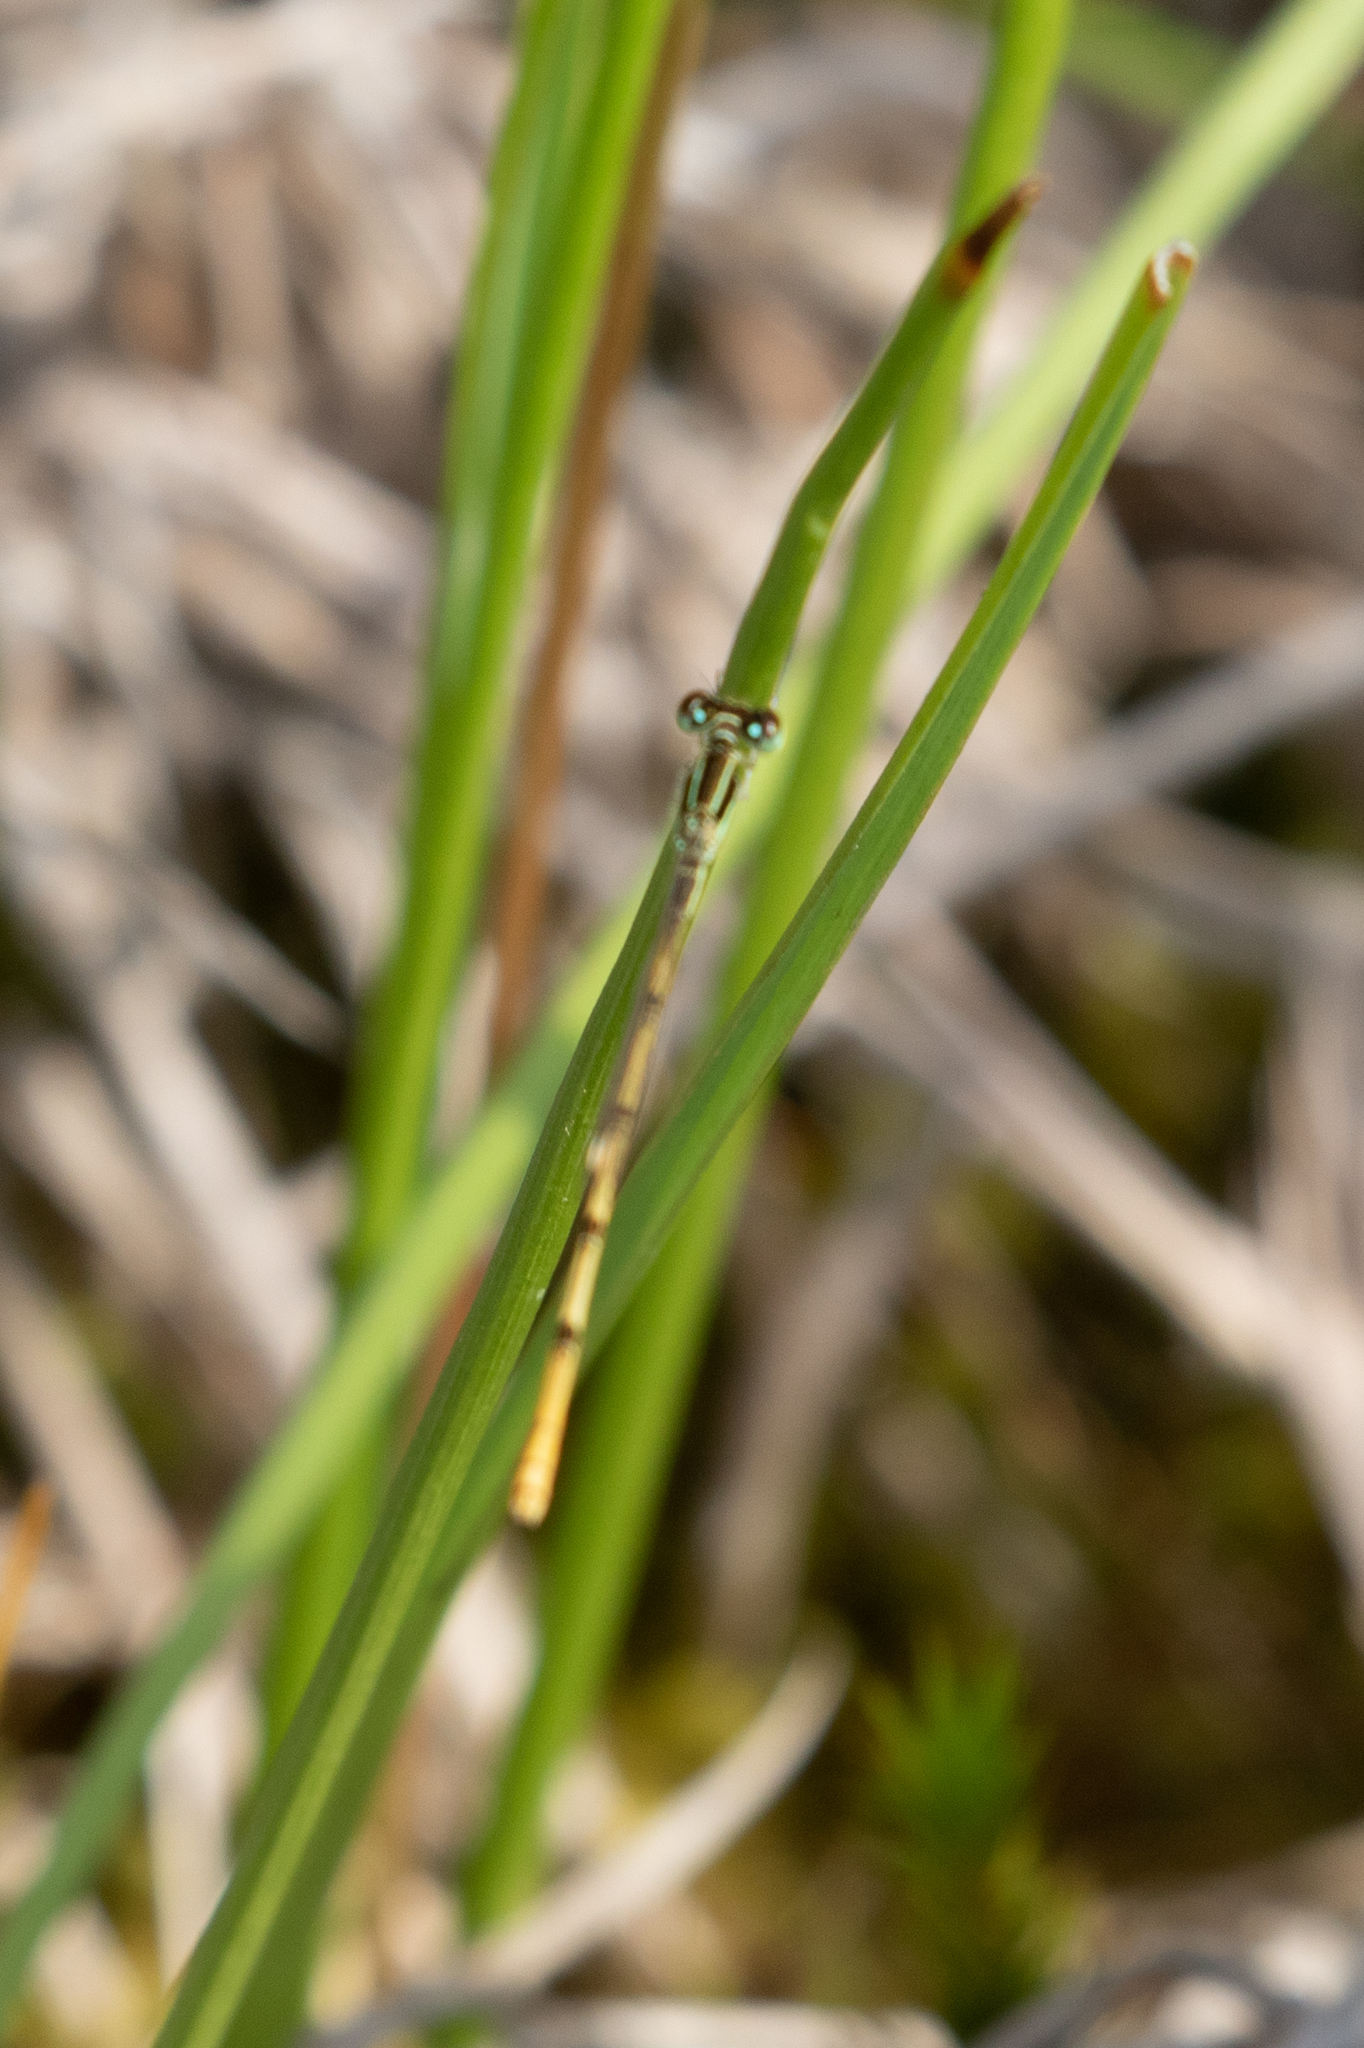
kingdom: Animalia
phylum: Arthropoda
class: Insecta
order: Odonata
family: Coenagrionidae
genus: Ischnura
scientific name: Ischnura hastata
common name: Citrine forktail
